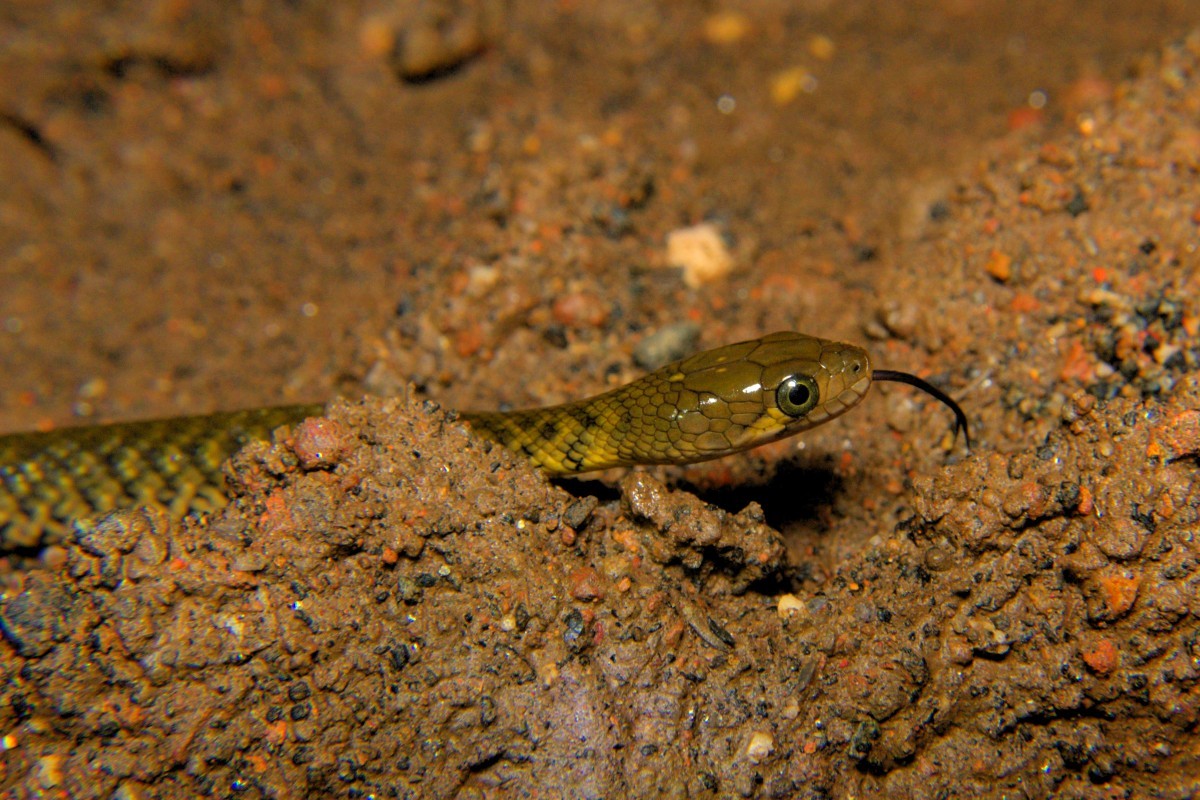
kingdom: Animalia
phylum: Chordata
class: Squamata
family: Colubridae
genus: Fowlea
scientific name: Fowlea piscator
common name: Asiatic water snake
